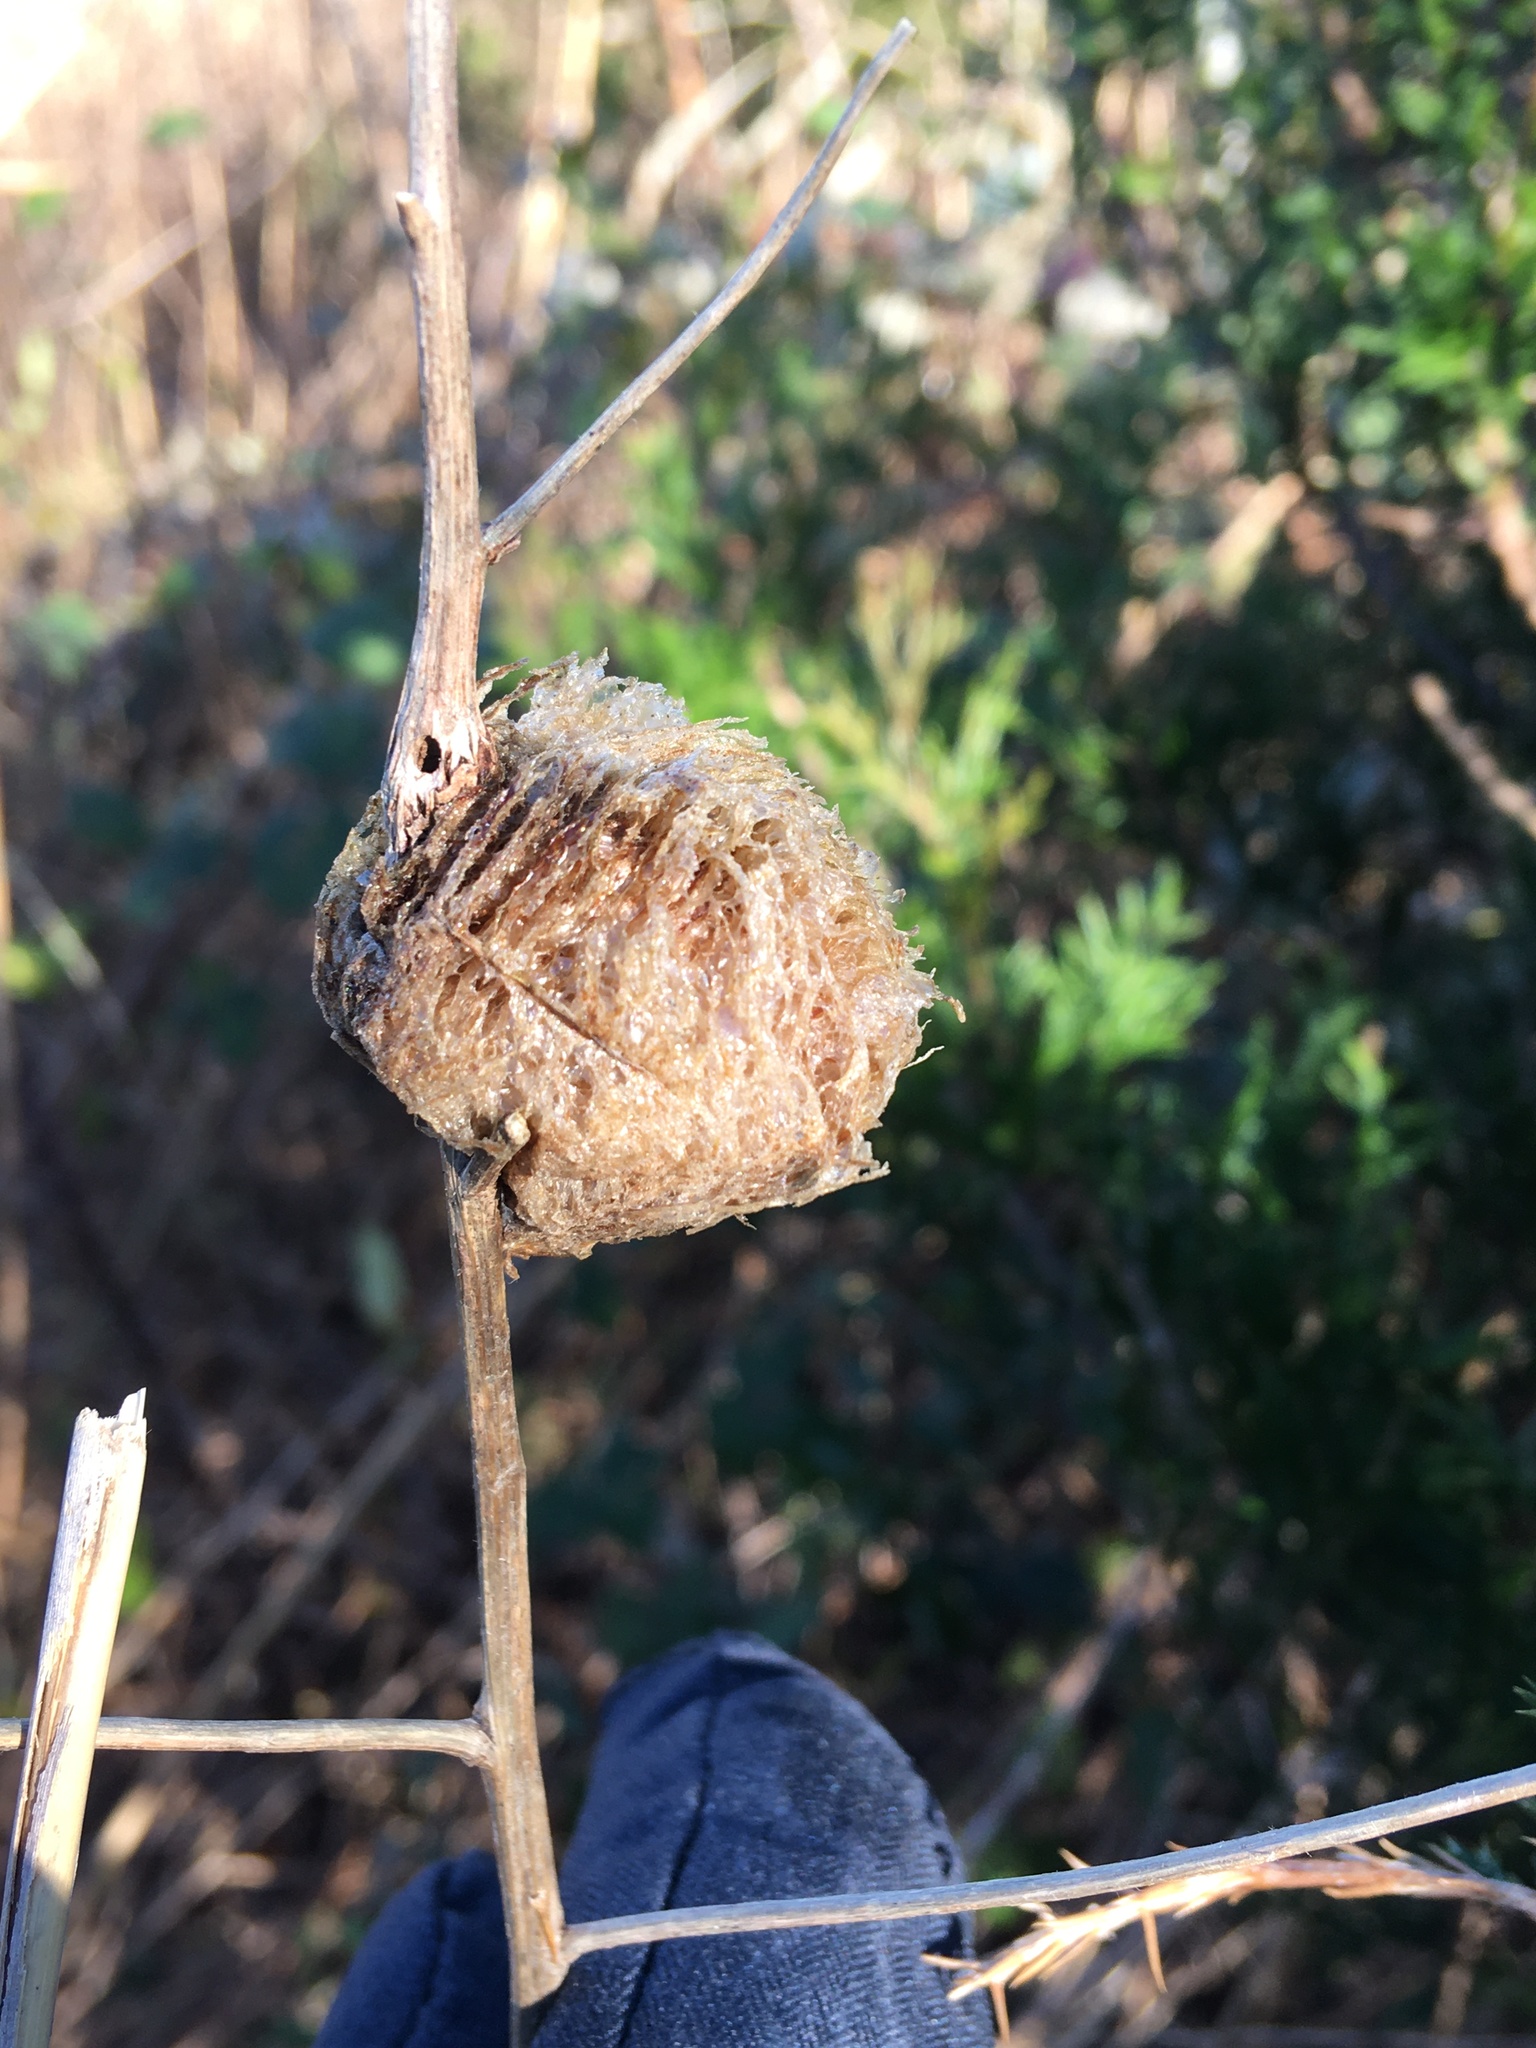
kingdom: Animalia
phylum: Arthropoda
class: Insecta
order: Mantodea
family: Mantidae
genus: Tenodera
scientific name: Tenodera sinensis
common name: Chinese mantis
